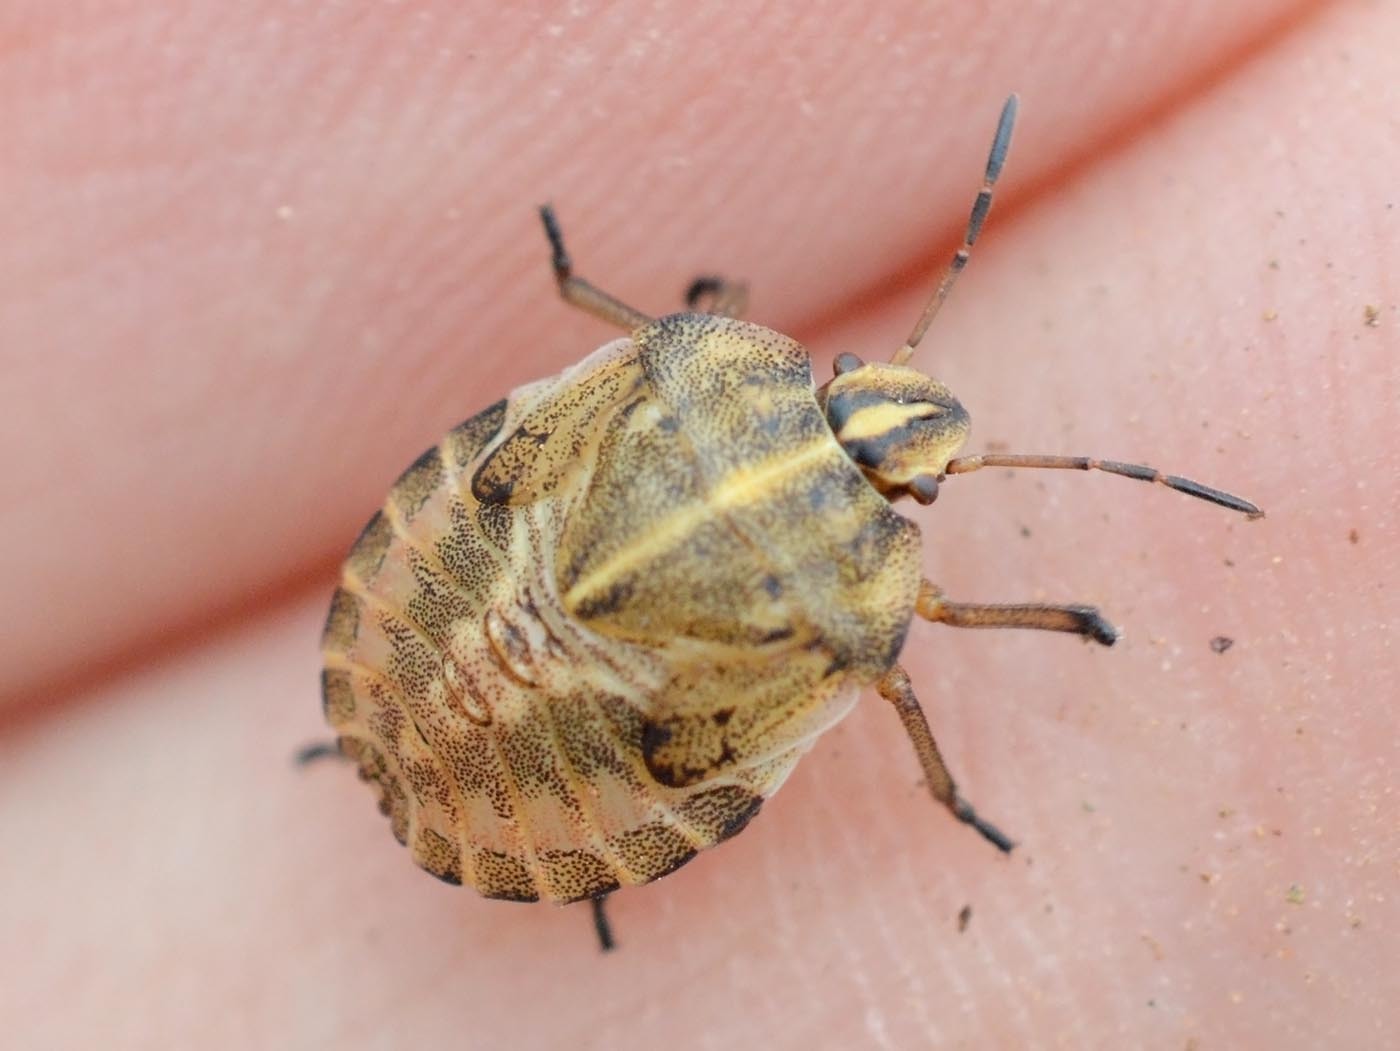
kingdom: Animalia
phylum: Arthropoda
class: Insecta
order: Hemiptera
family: Pentatomidae
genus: Graphosoma
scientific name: Graphosoma italicum
